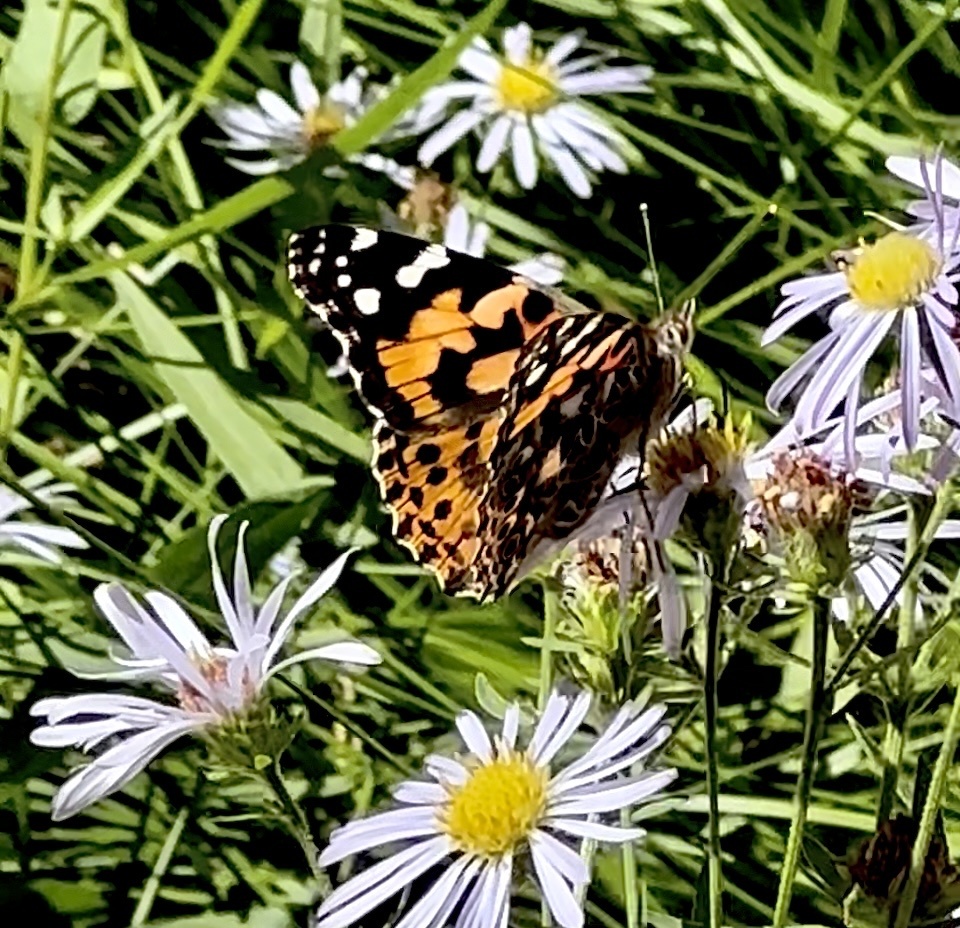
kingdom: Animalia
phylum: Arthropoda
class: Insecta
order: Lepidoptera
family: Nymphalidae
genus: Vanessa
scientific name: Vanessa cardui
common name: Painted lady
